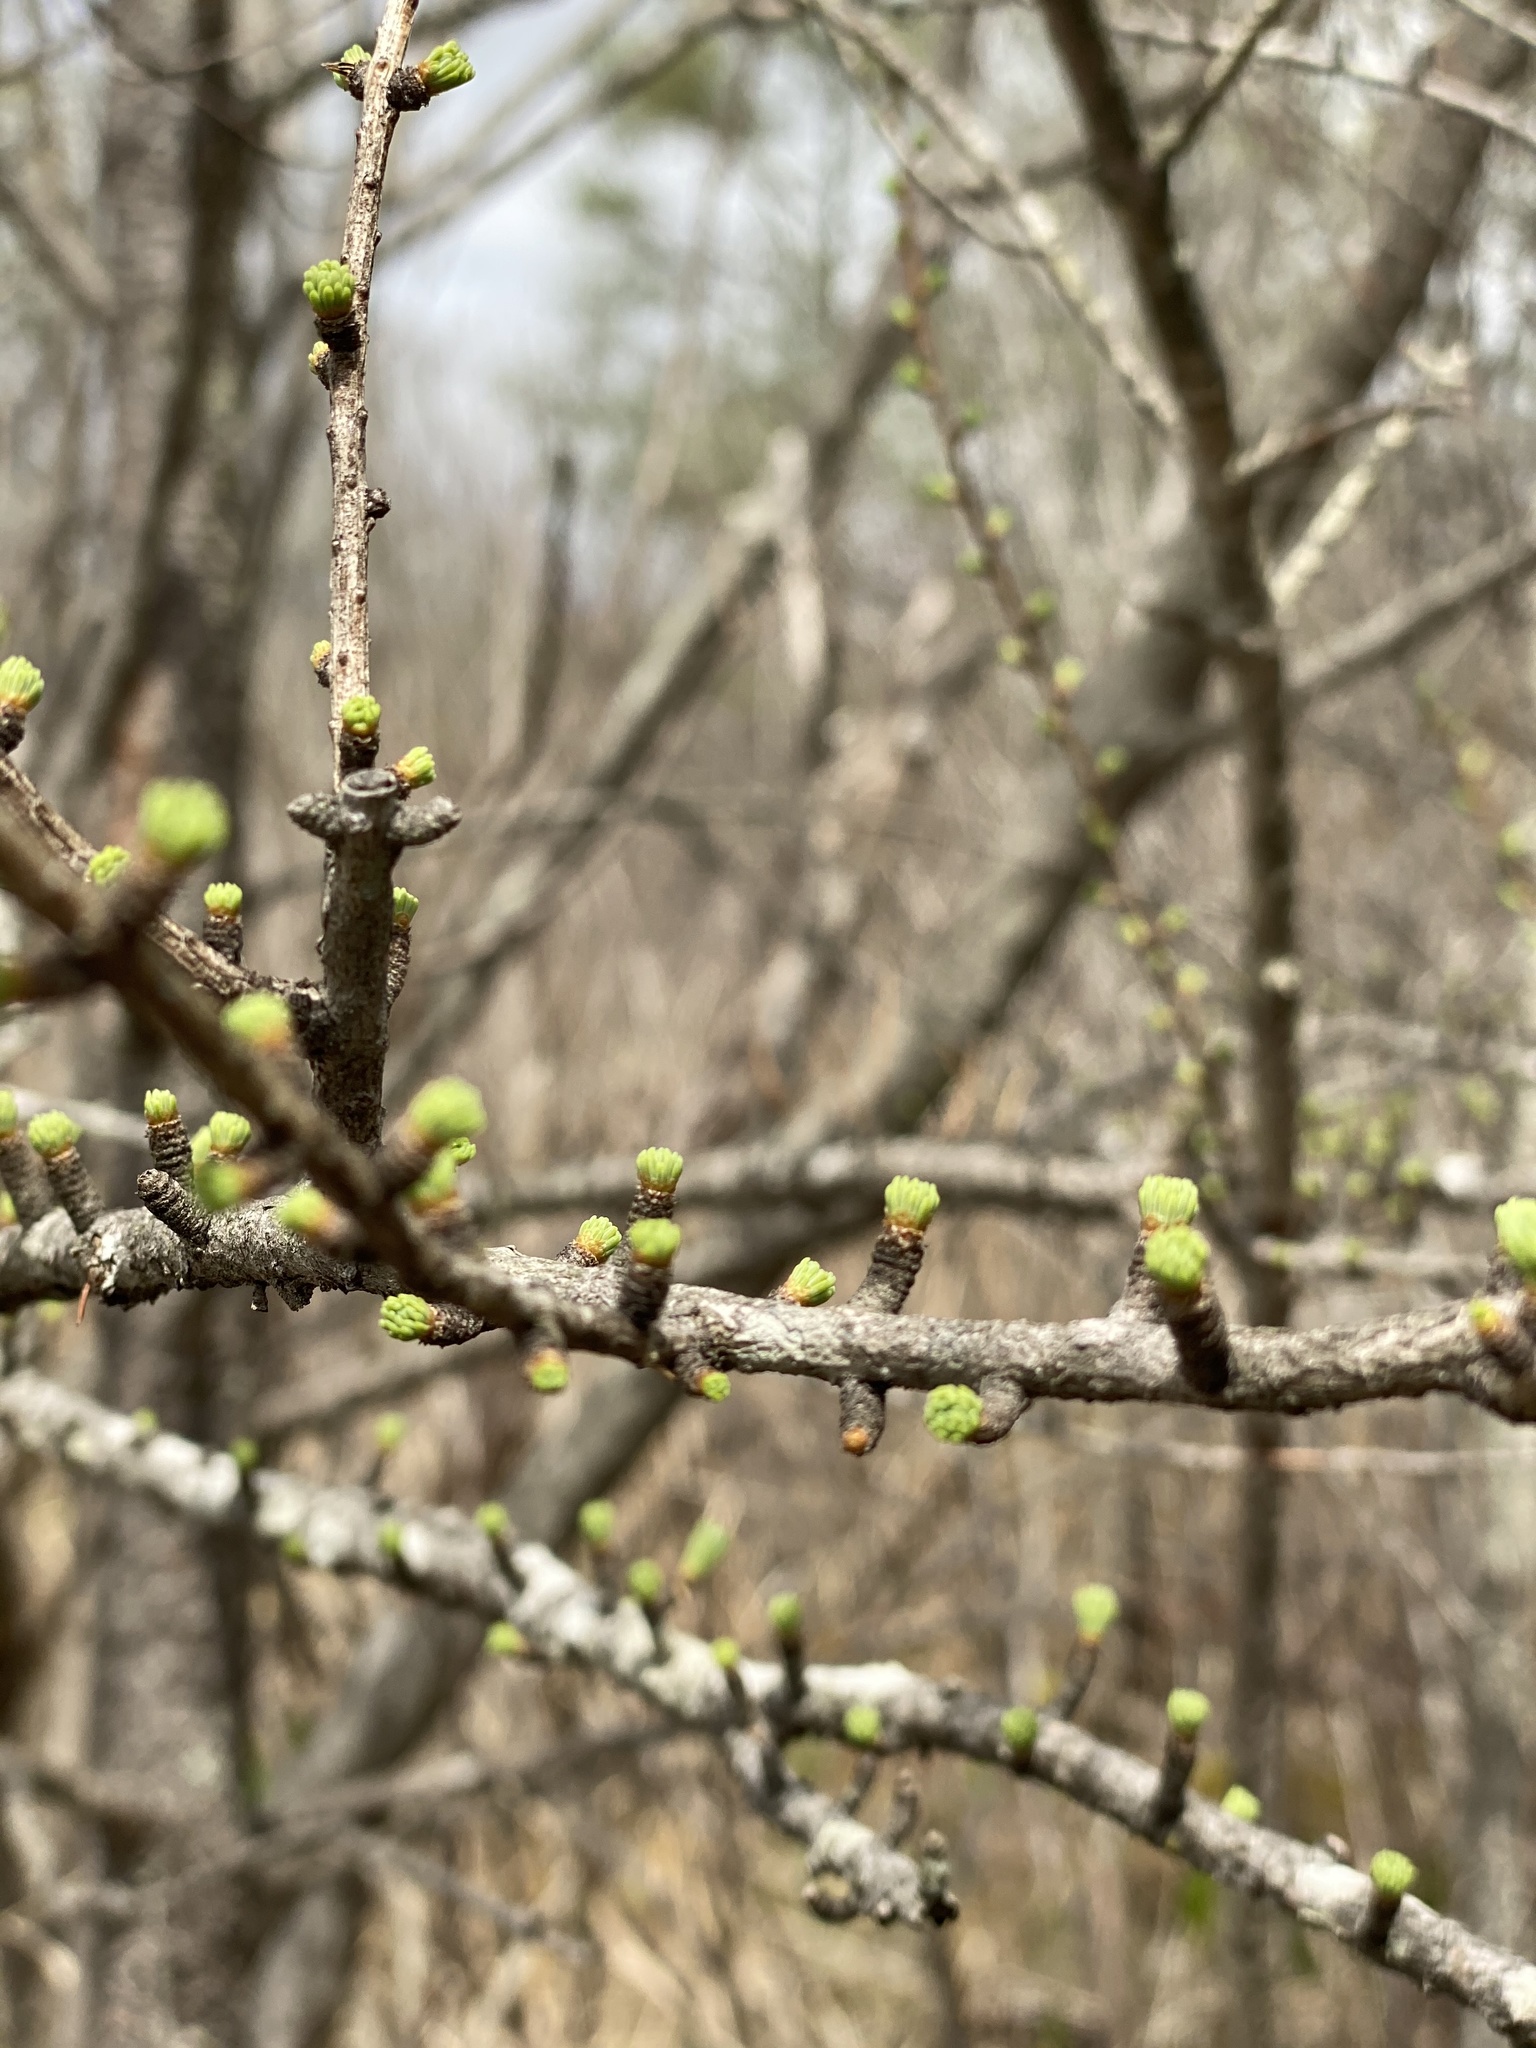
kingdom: Plantae
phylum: Tracheophyta
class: Pinopsida
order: Pinales
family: Pinaceae
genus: Larix
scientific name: Larix laricina
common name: American larch
